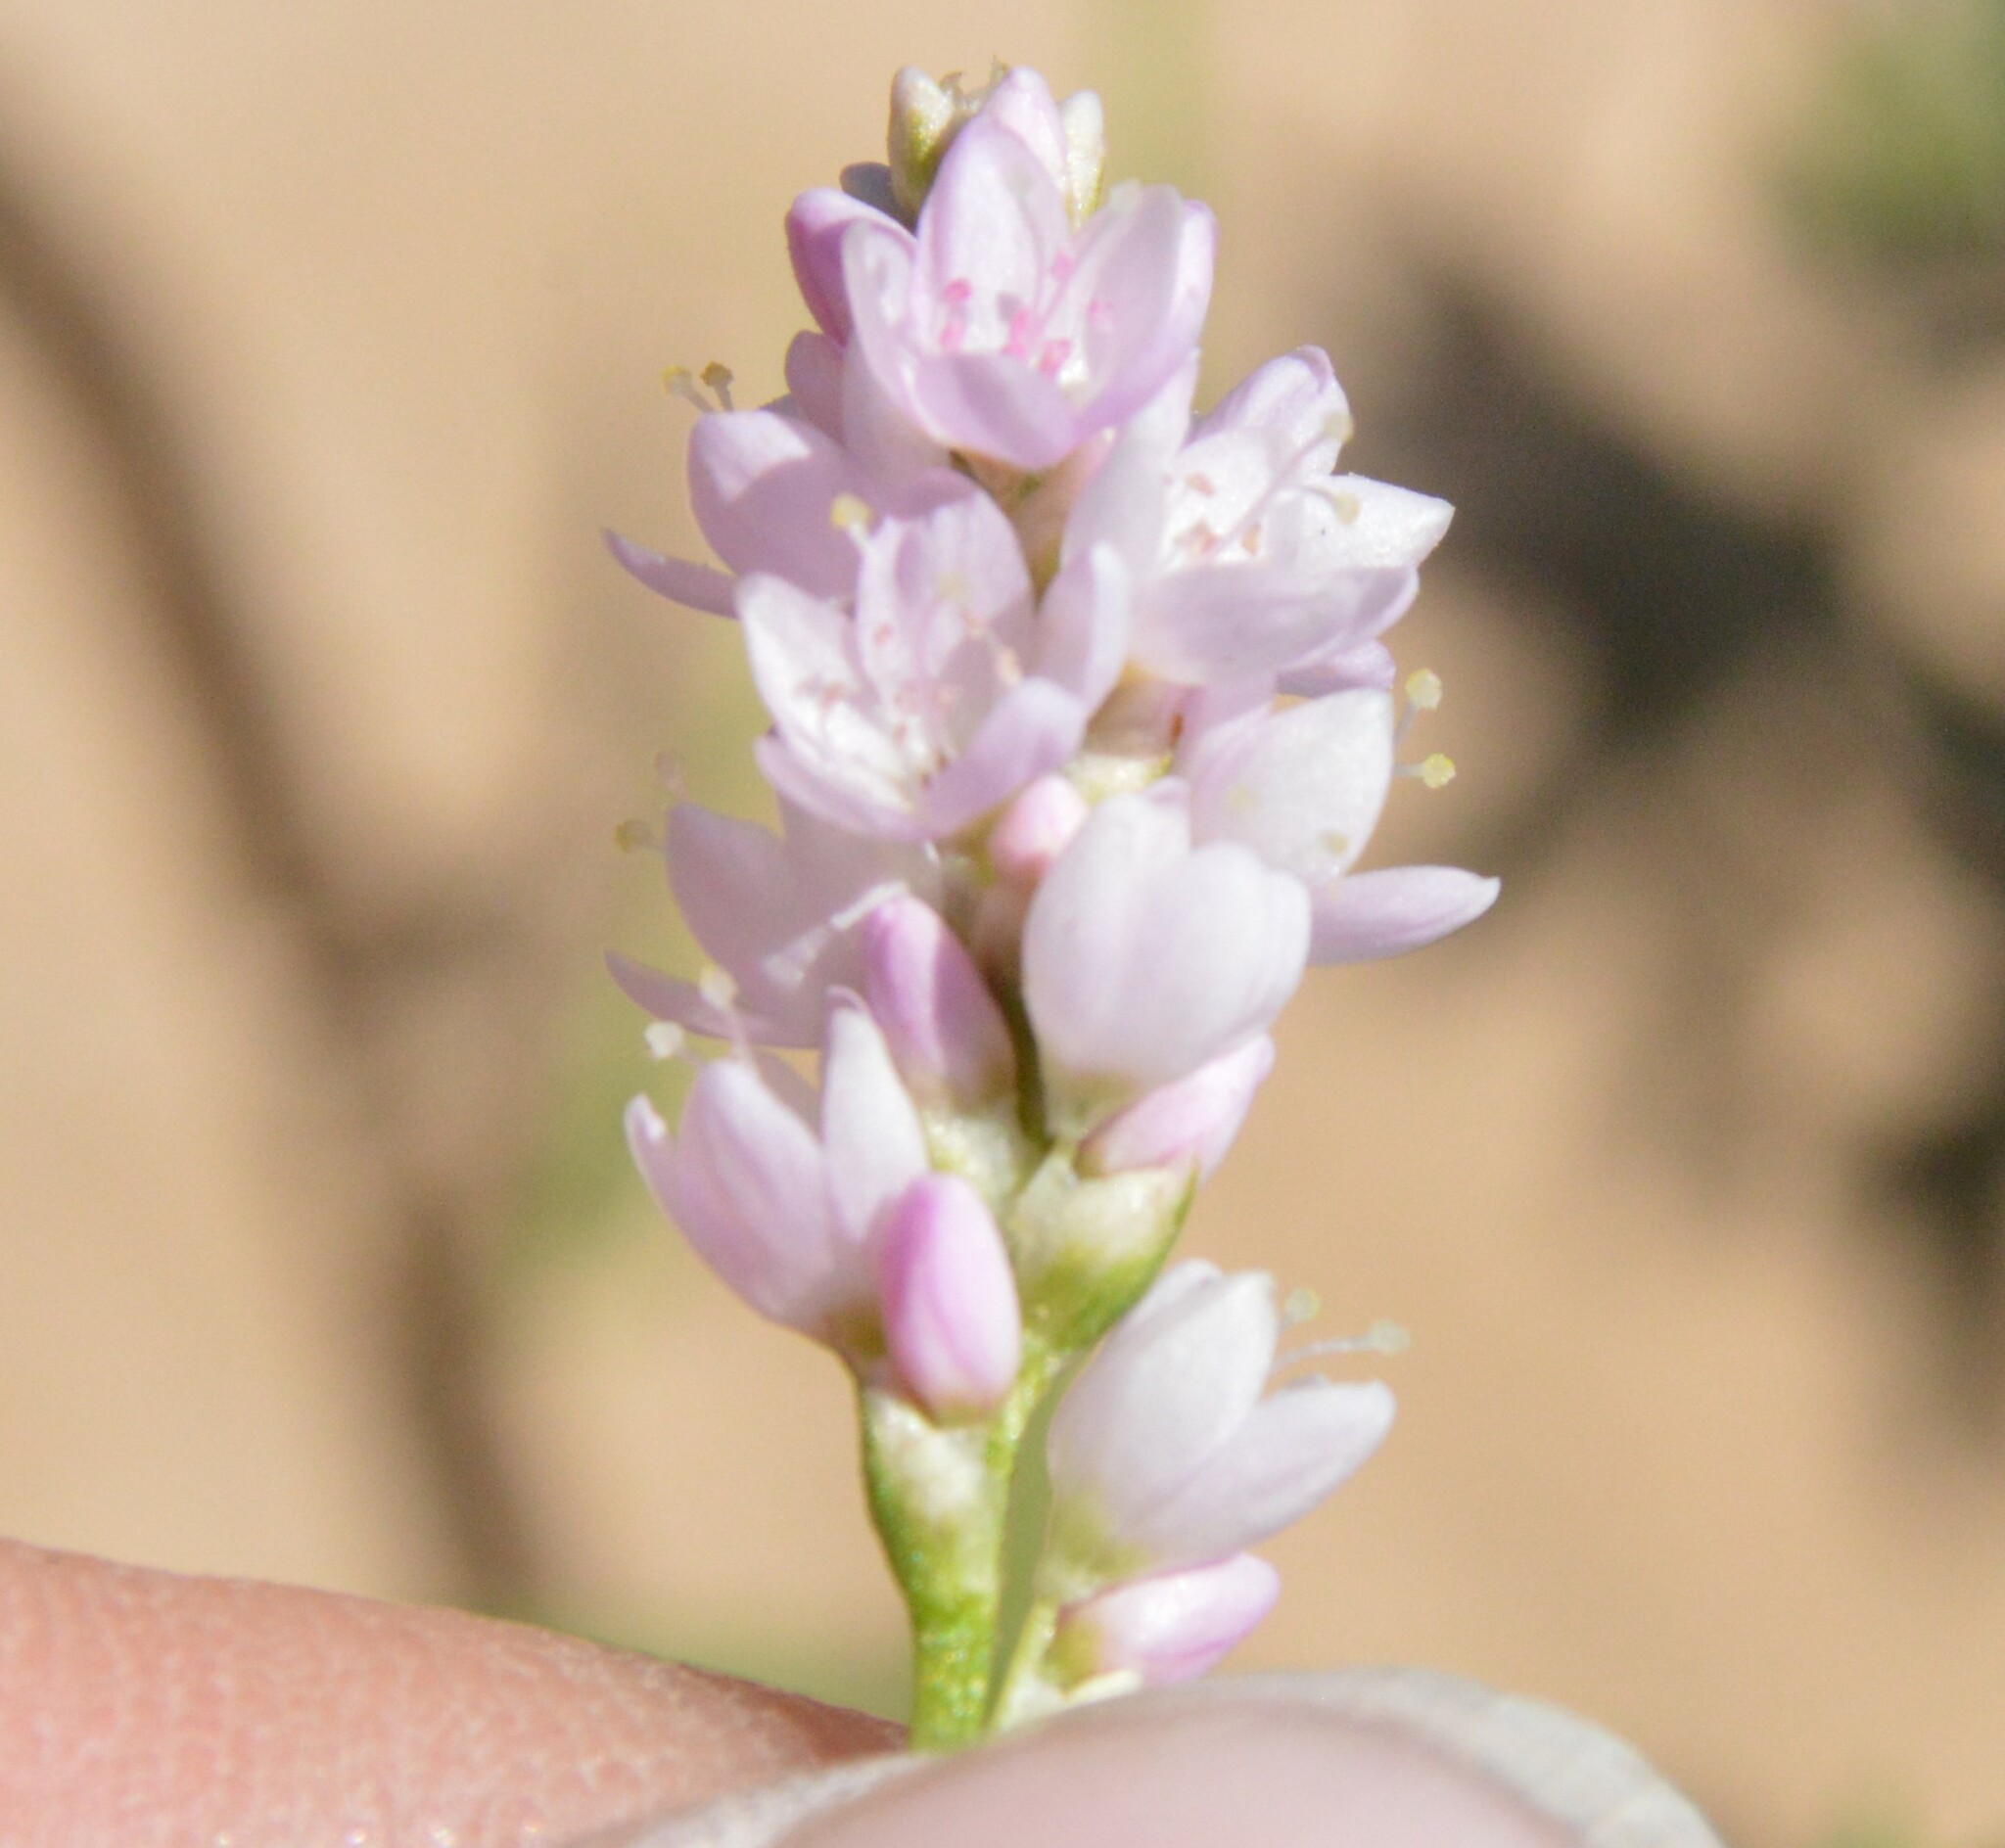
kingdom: Plantae
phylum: Tracheophyta
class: Magnoliopsida
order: Caryophyllales
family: Polygonaceae
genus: Persicaria
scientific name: Persicaria bicornis
